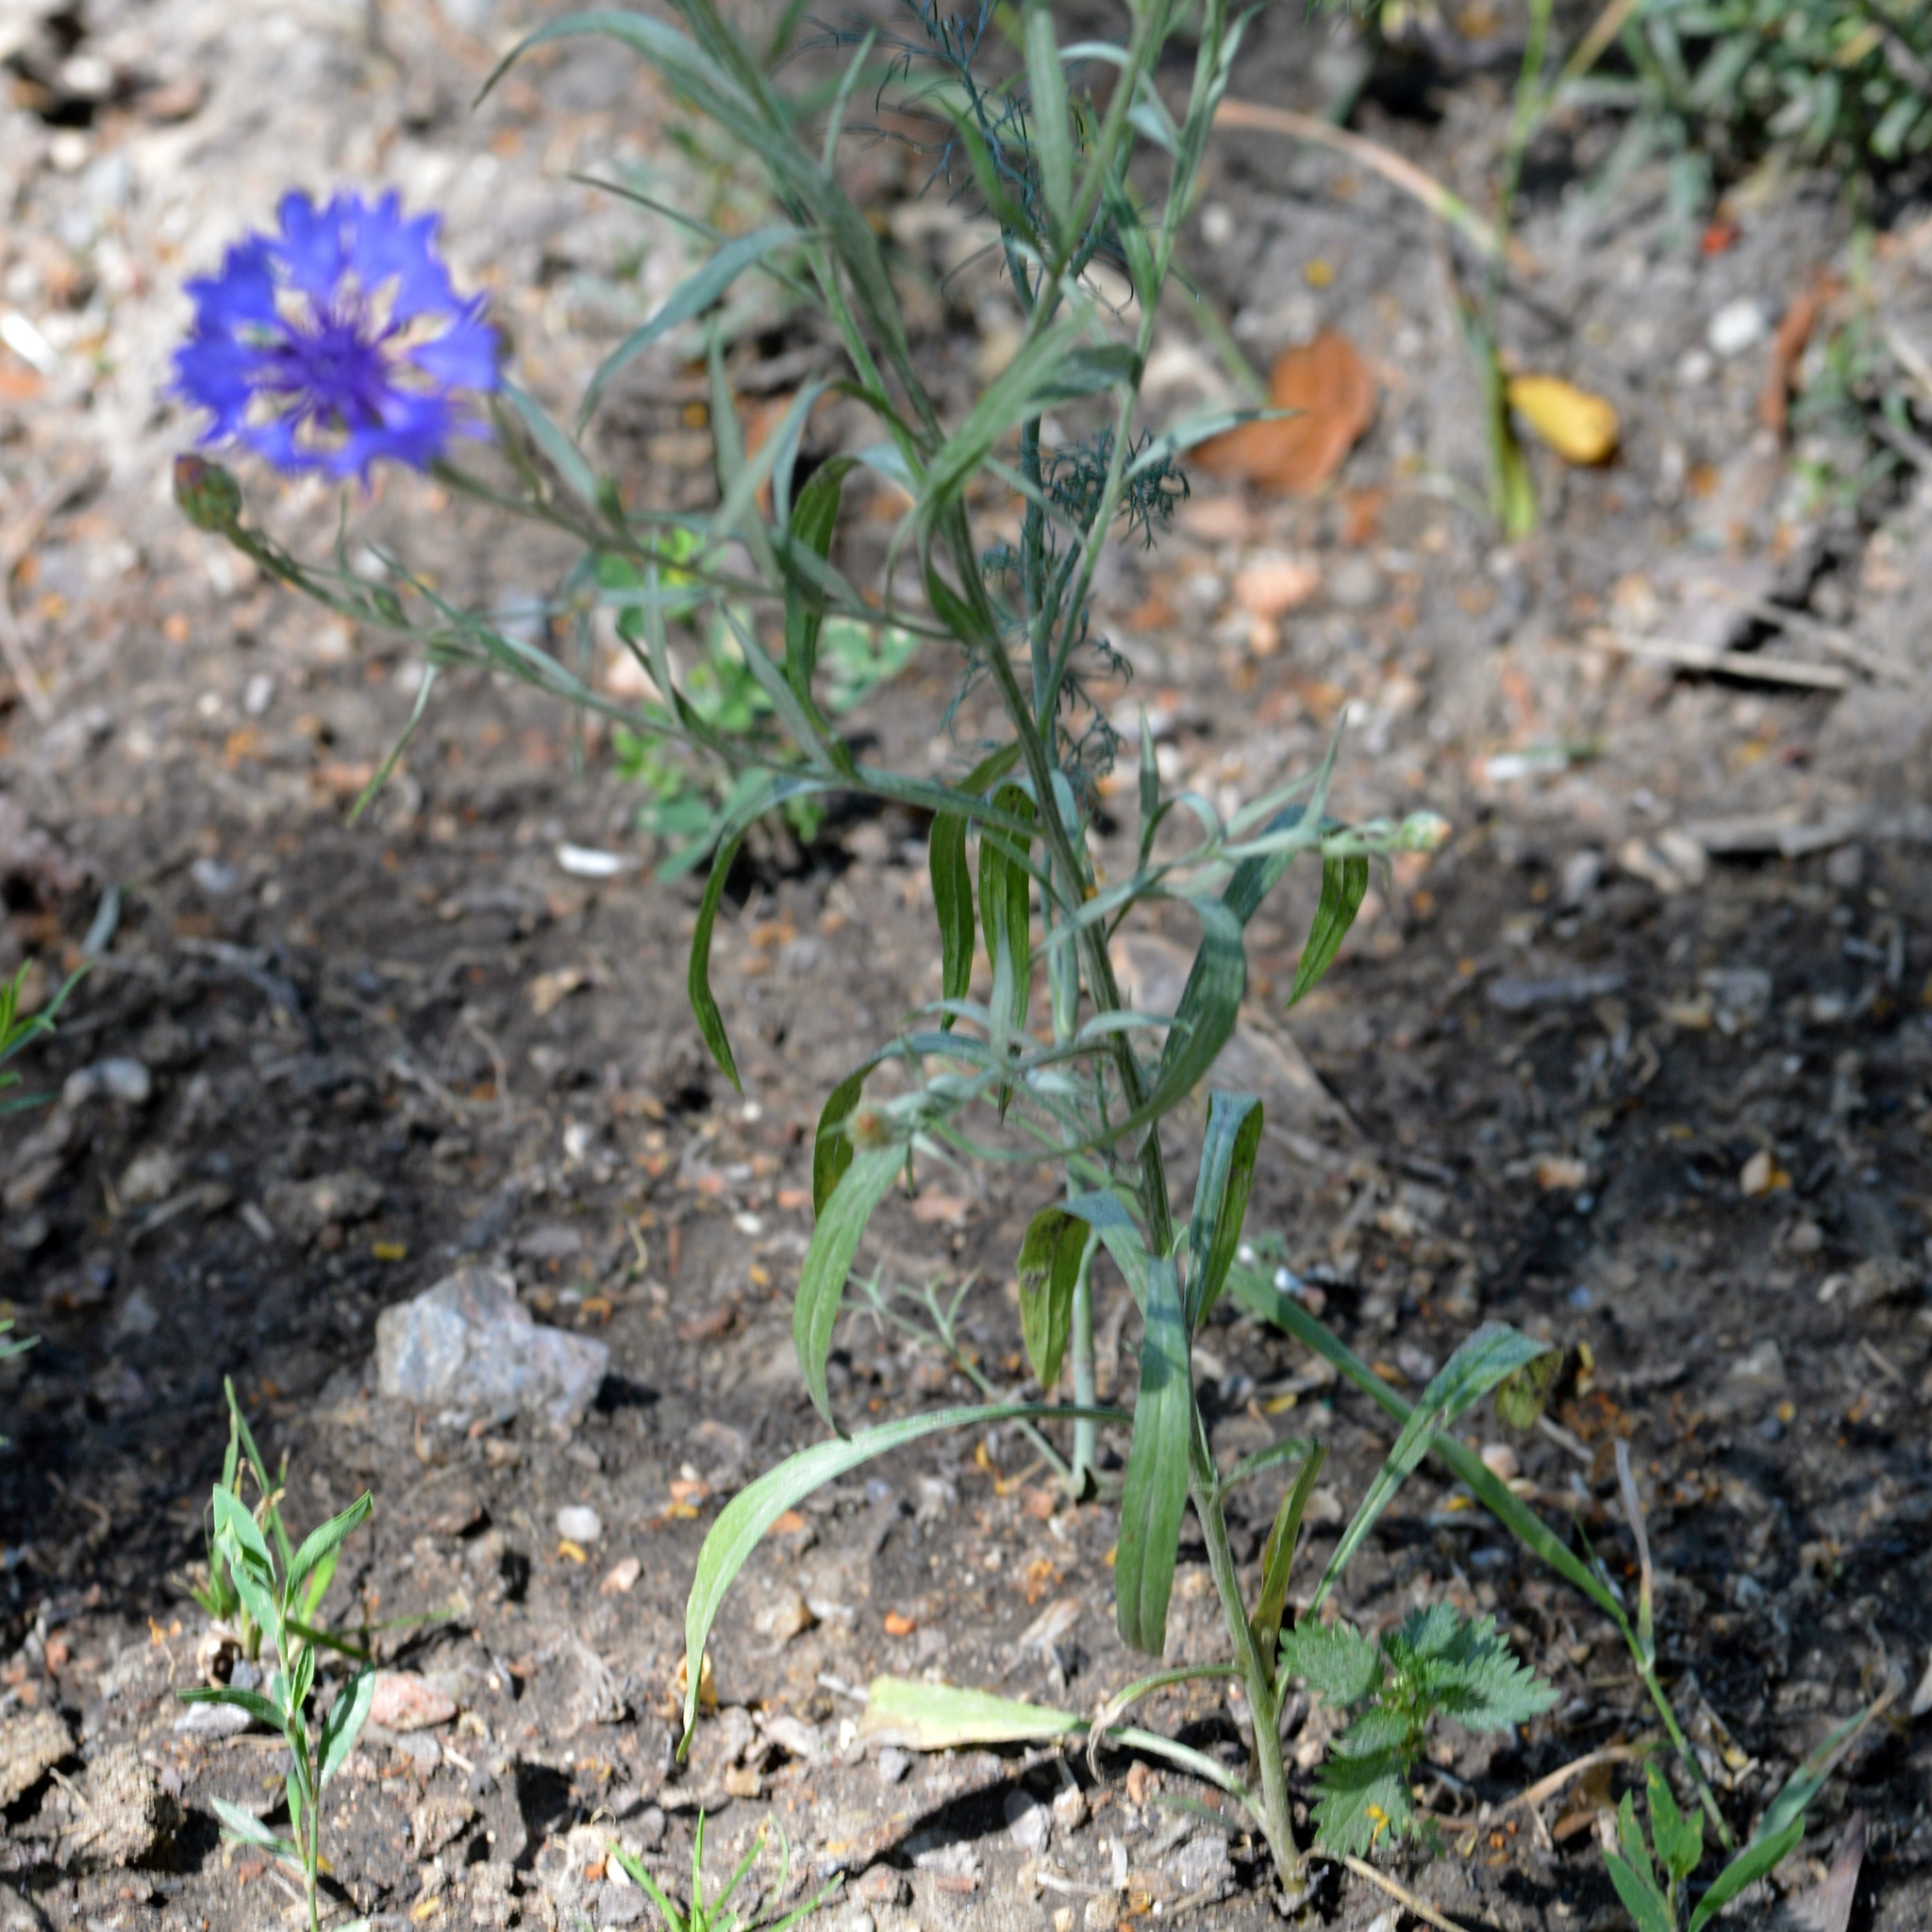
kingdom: Plantae
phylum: Tracheophyta
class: Magnoliopsida
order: Asterales
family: Asteraceae
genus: Centaurea
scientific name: Centaurea cyanus
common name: Cornflower
